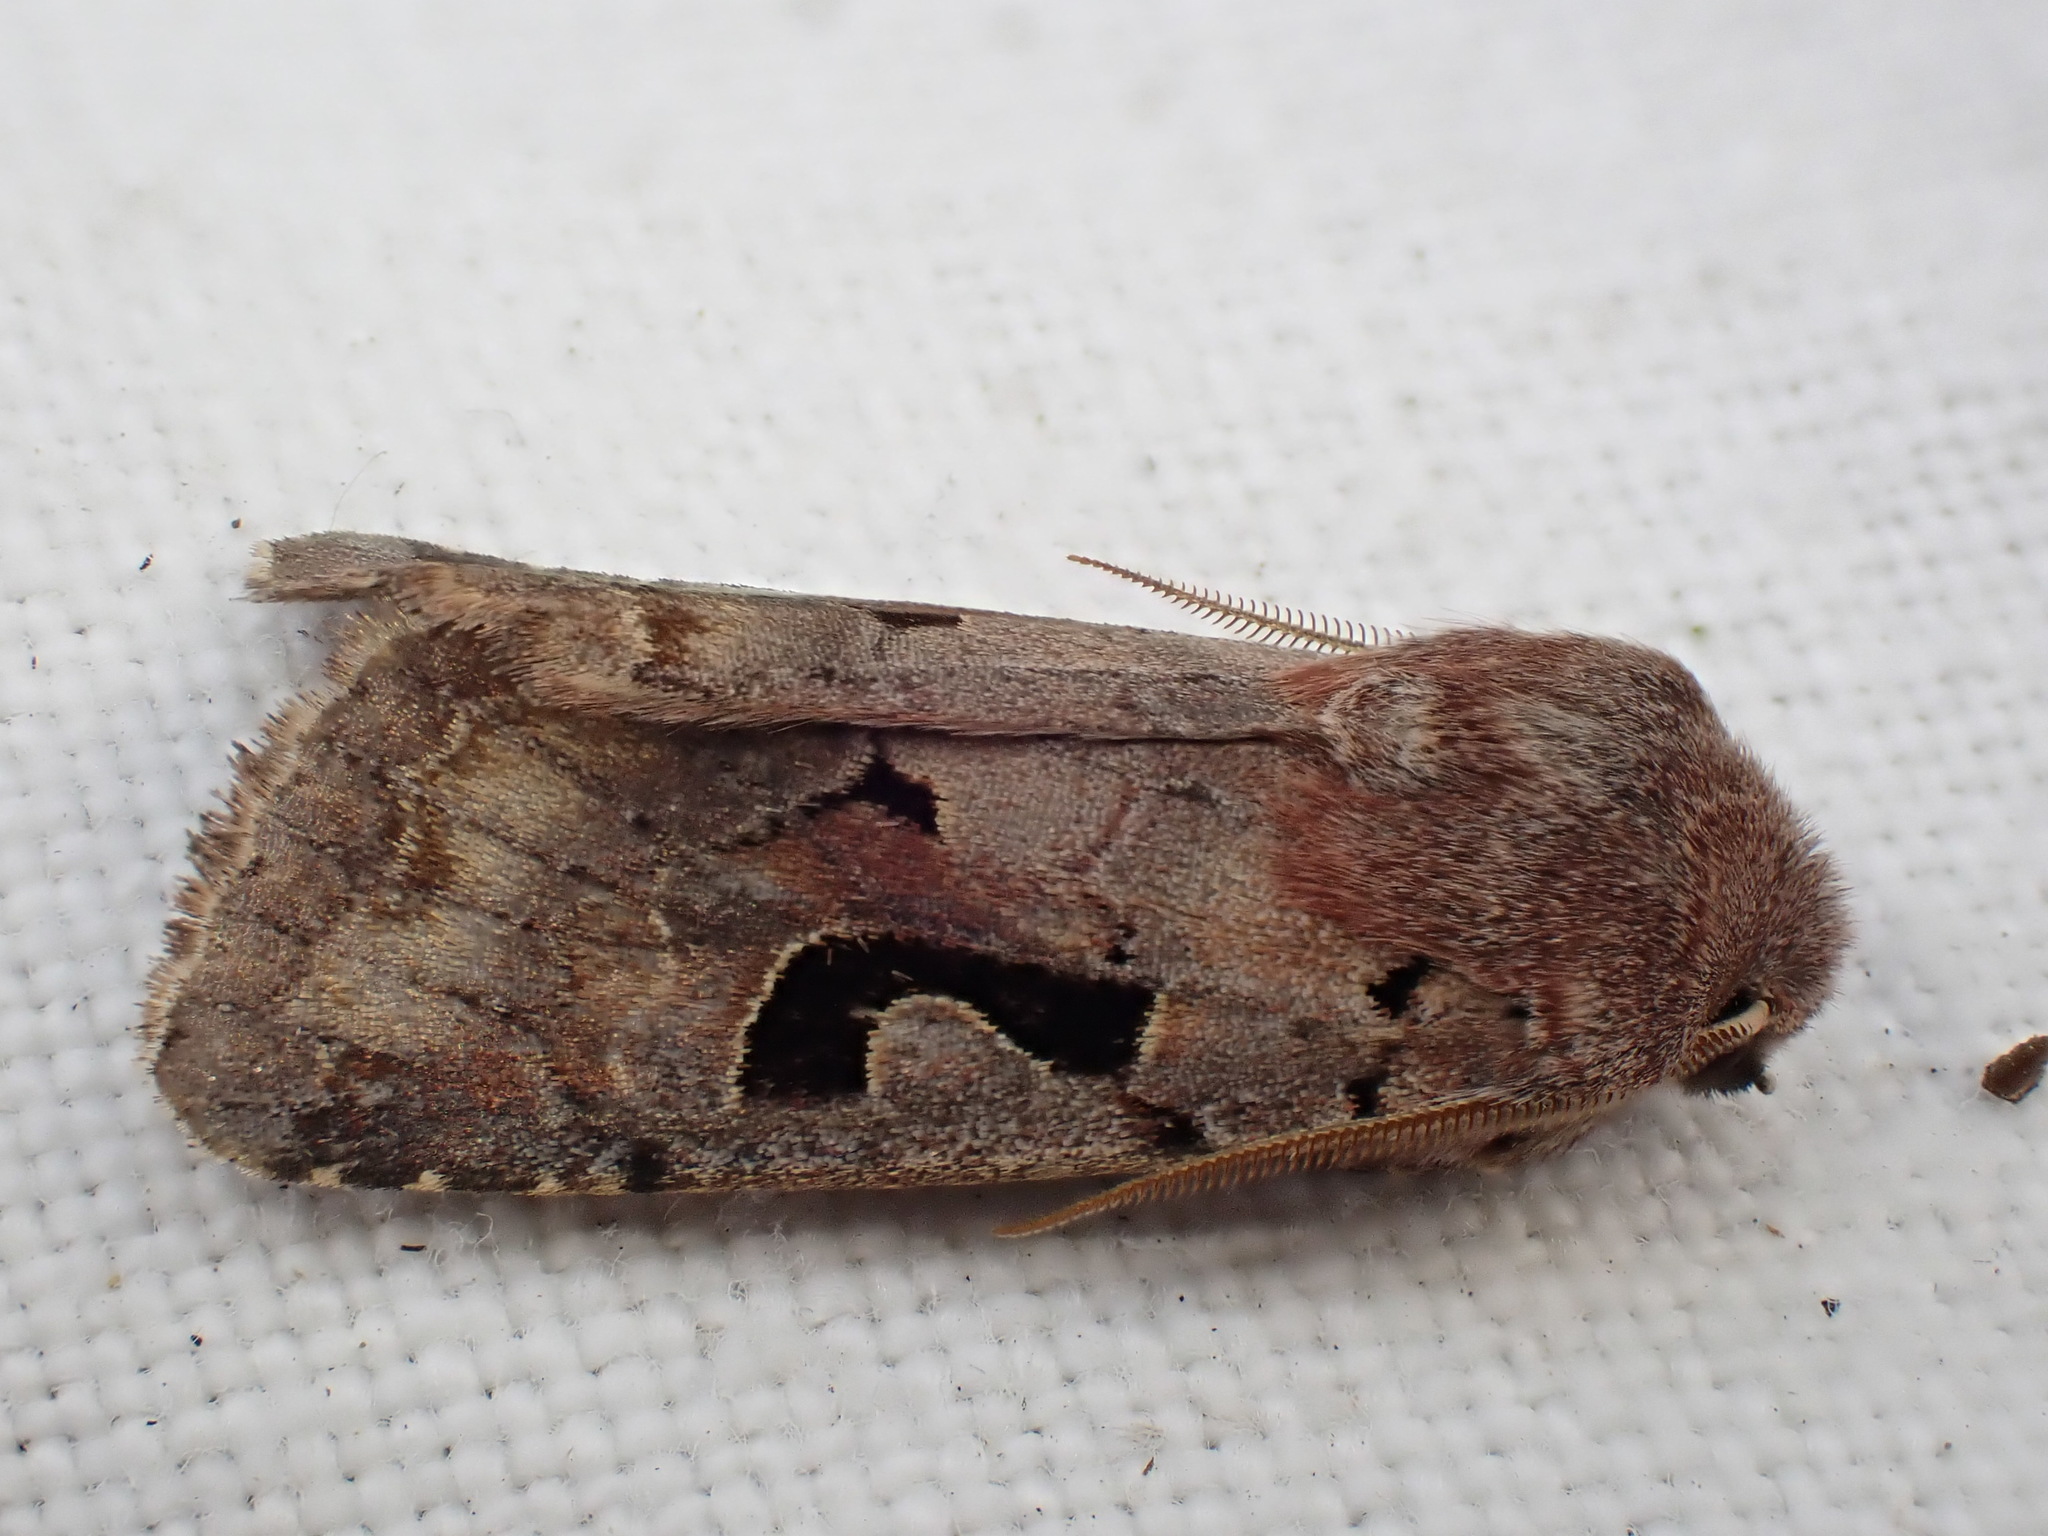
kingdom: Animalia
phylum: Arthropoda
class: Insecta
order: Lepidoptera
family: Noctuidae
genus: Orthosia
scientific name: Orthosia gothica
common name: Hebrew character
